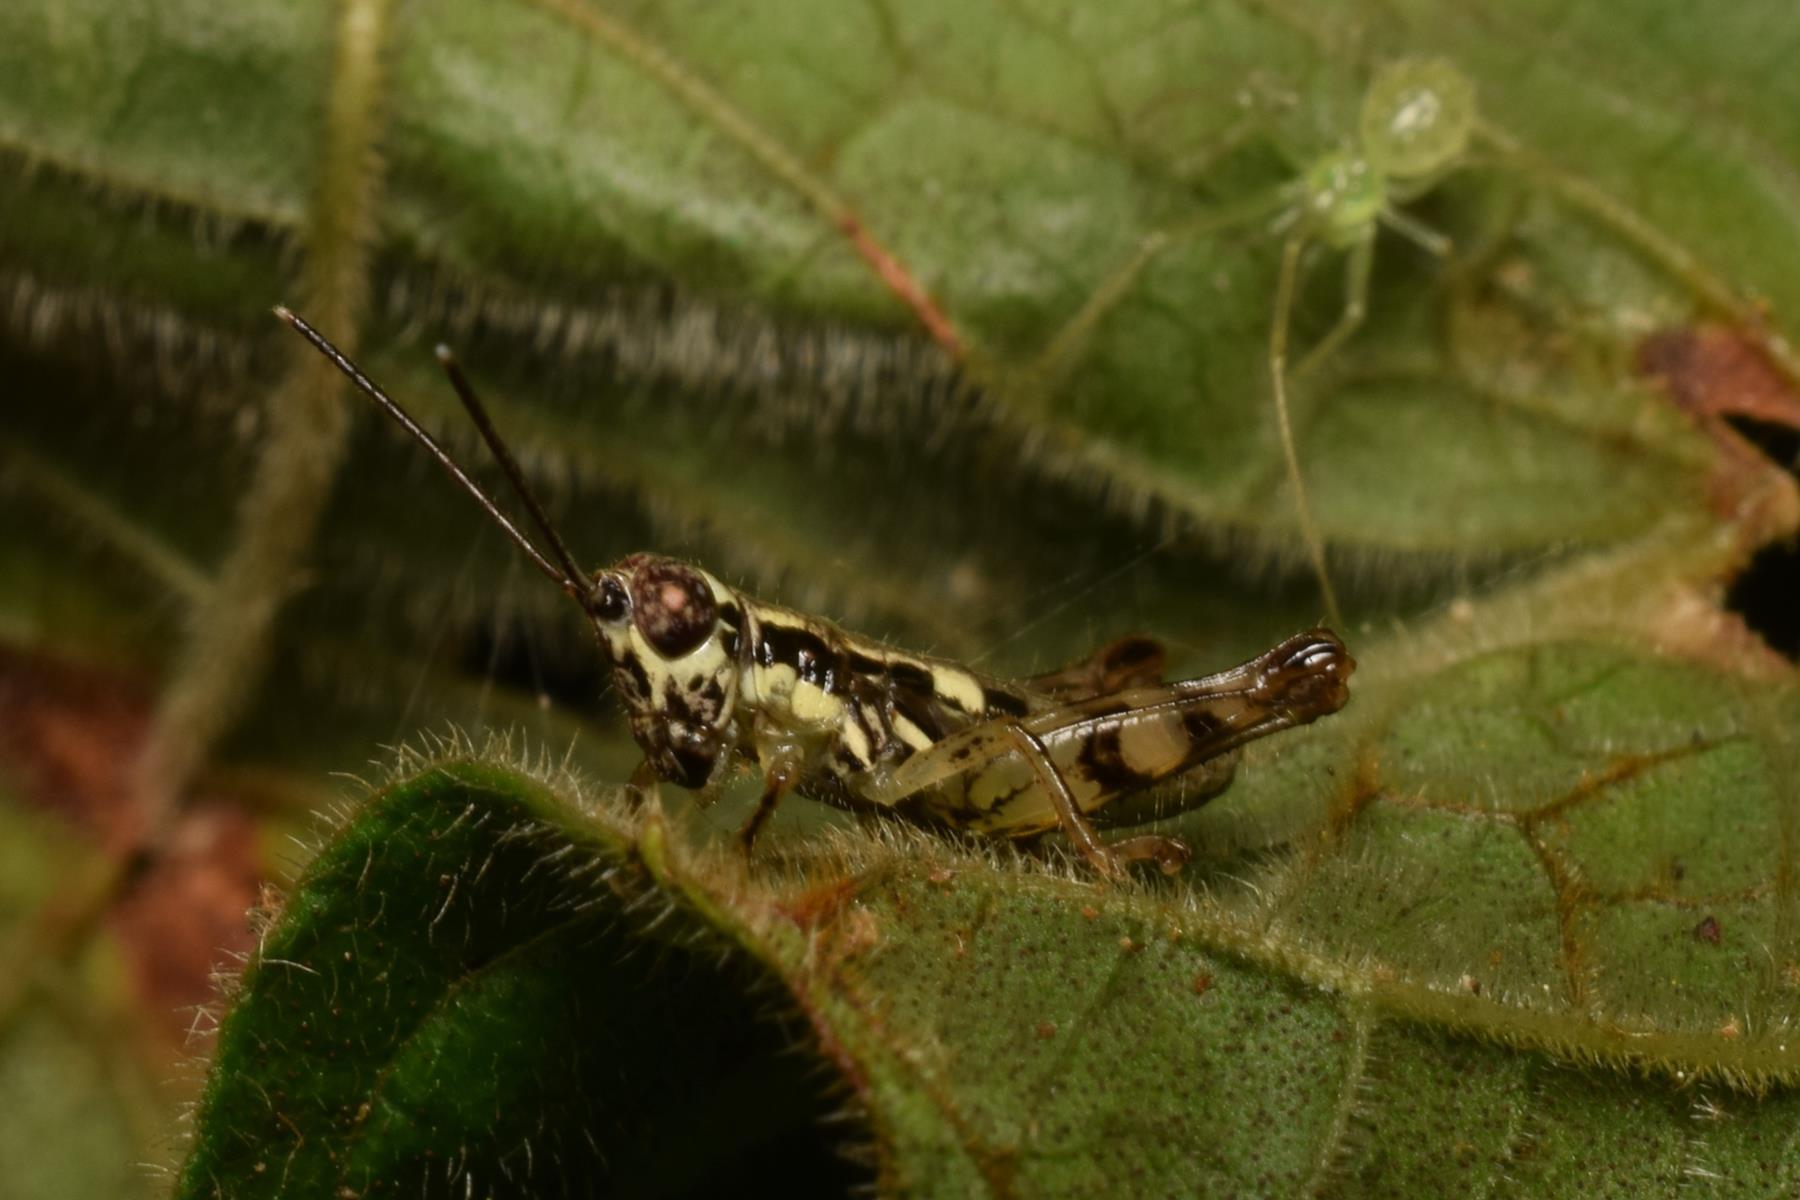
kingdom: Animalia
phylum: Arthropoda
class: Insecta
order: Orthoptera
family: Acrididae
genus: Genimen
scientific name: Genimen prasinum
